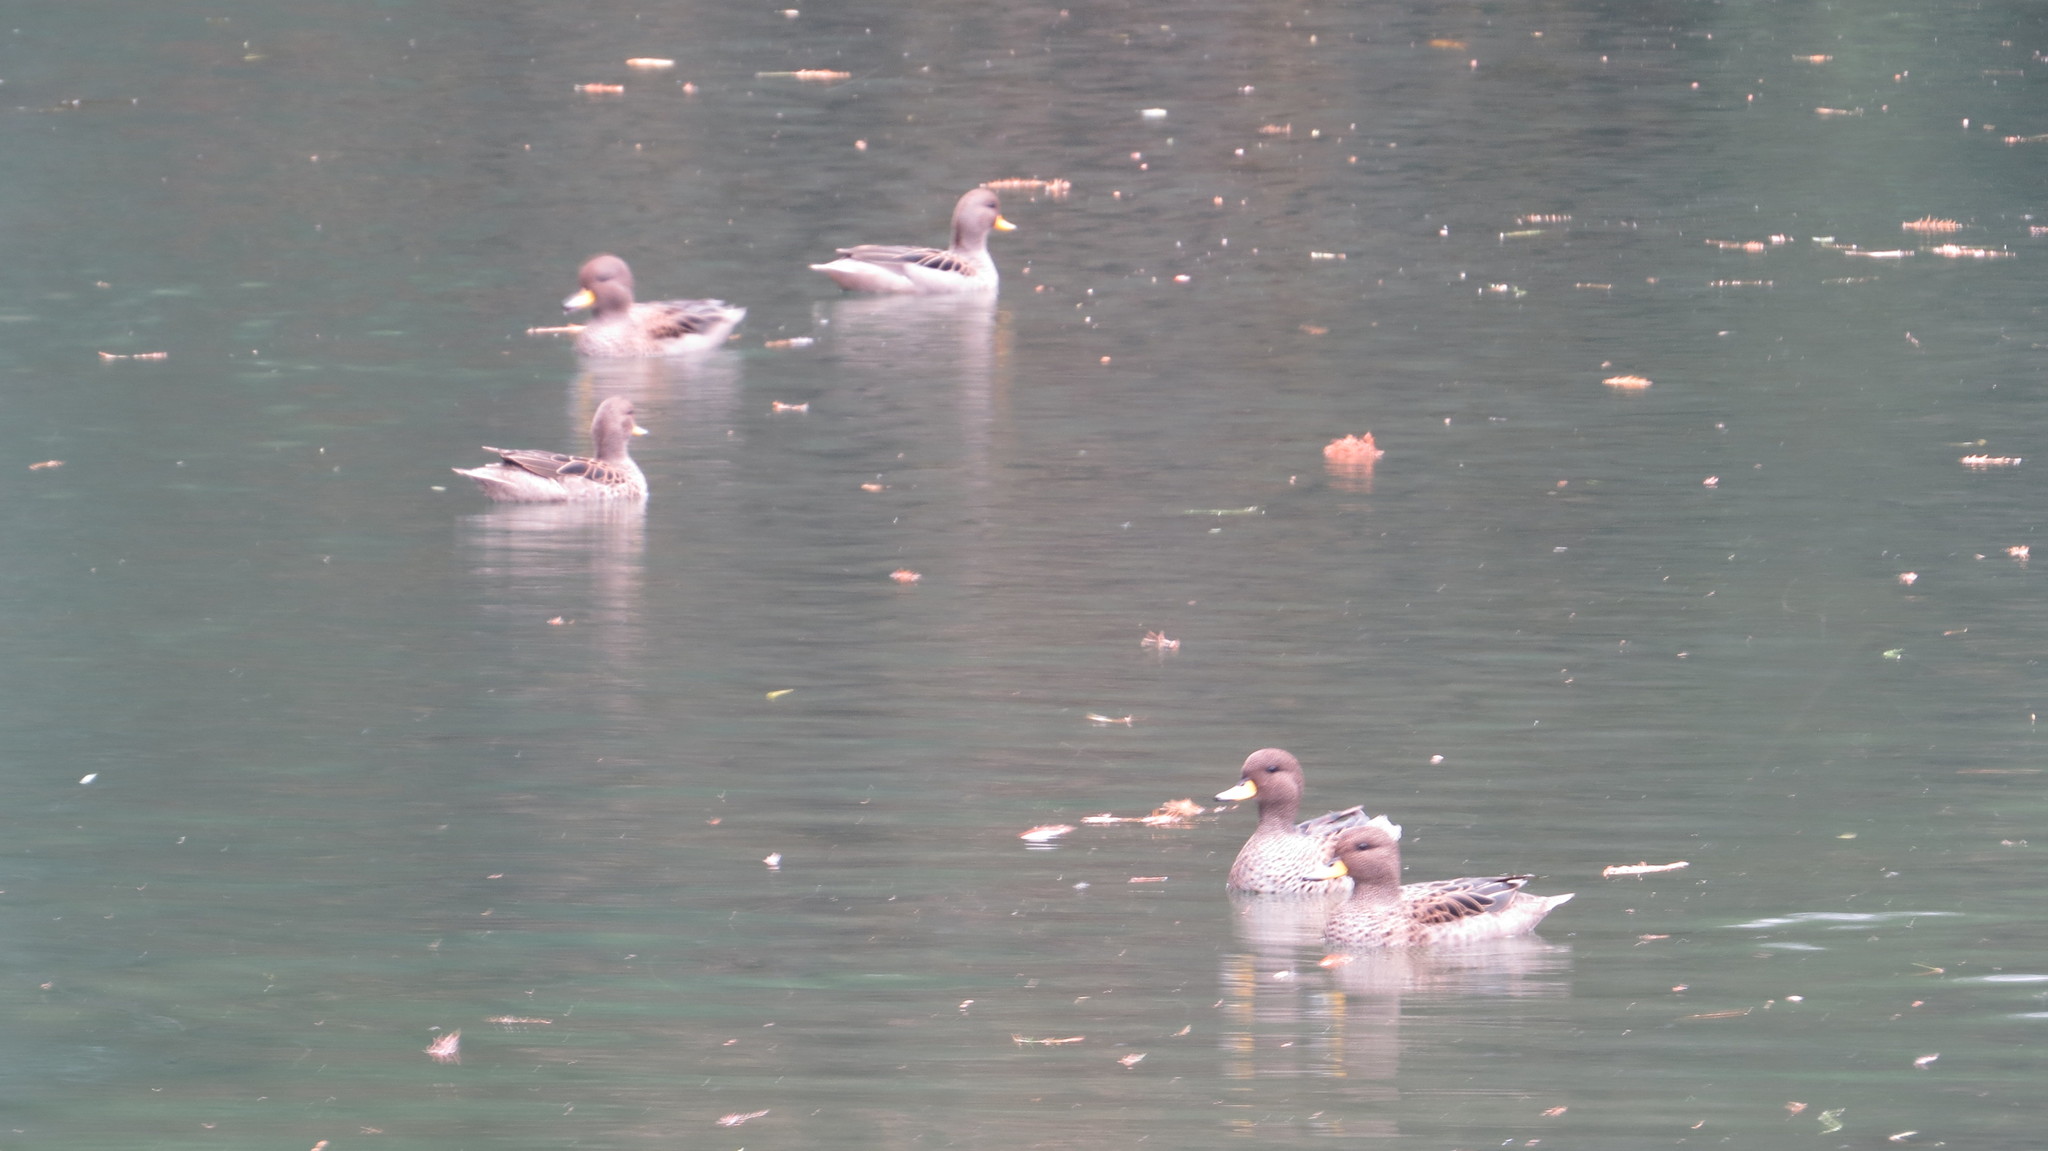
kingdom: Animalia
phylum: Chordata
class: Aves
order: Anseriformes
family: Anatidae
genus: Anas
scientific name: Anas flavirostris
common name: Yellow-billed teal
